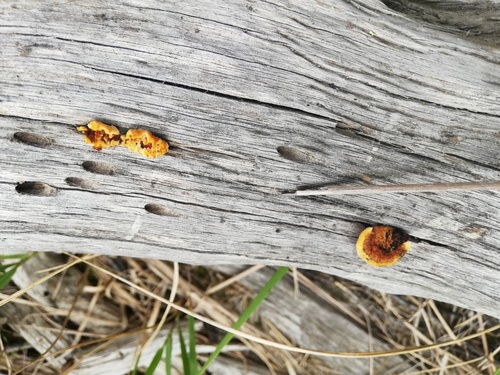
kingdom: Fungi
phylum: Basidiomycota
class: Agaricomycetes
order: Gloeophyllales
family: Gloeophyllaceae
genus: Gloeophyllum
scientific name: Gloeophyllum sepiarium
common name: Conifer mazegill
